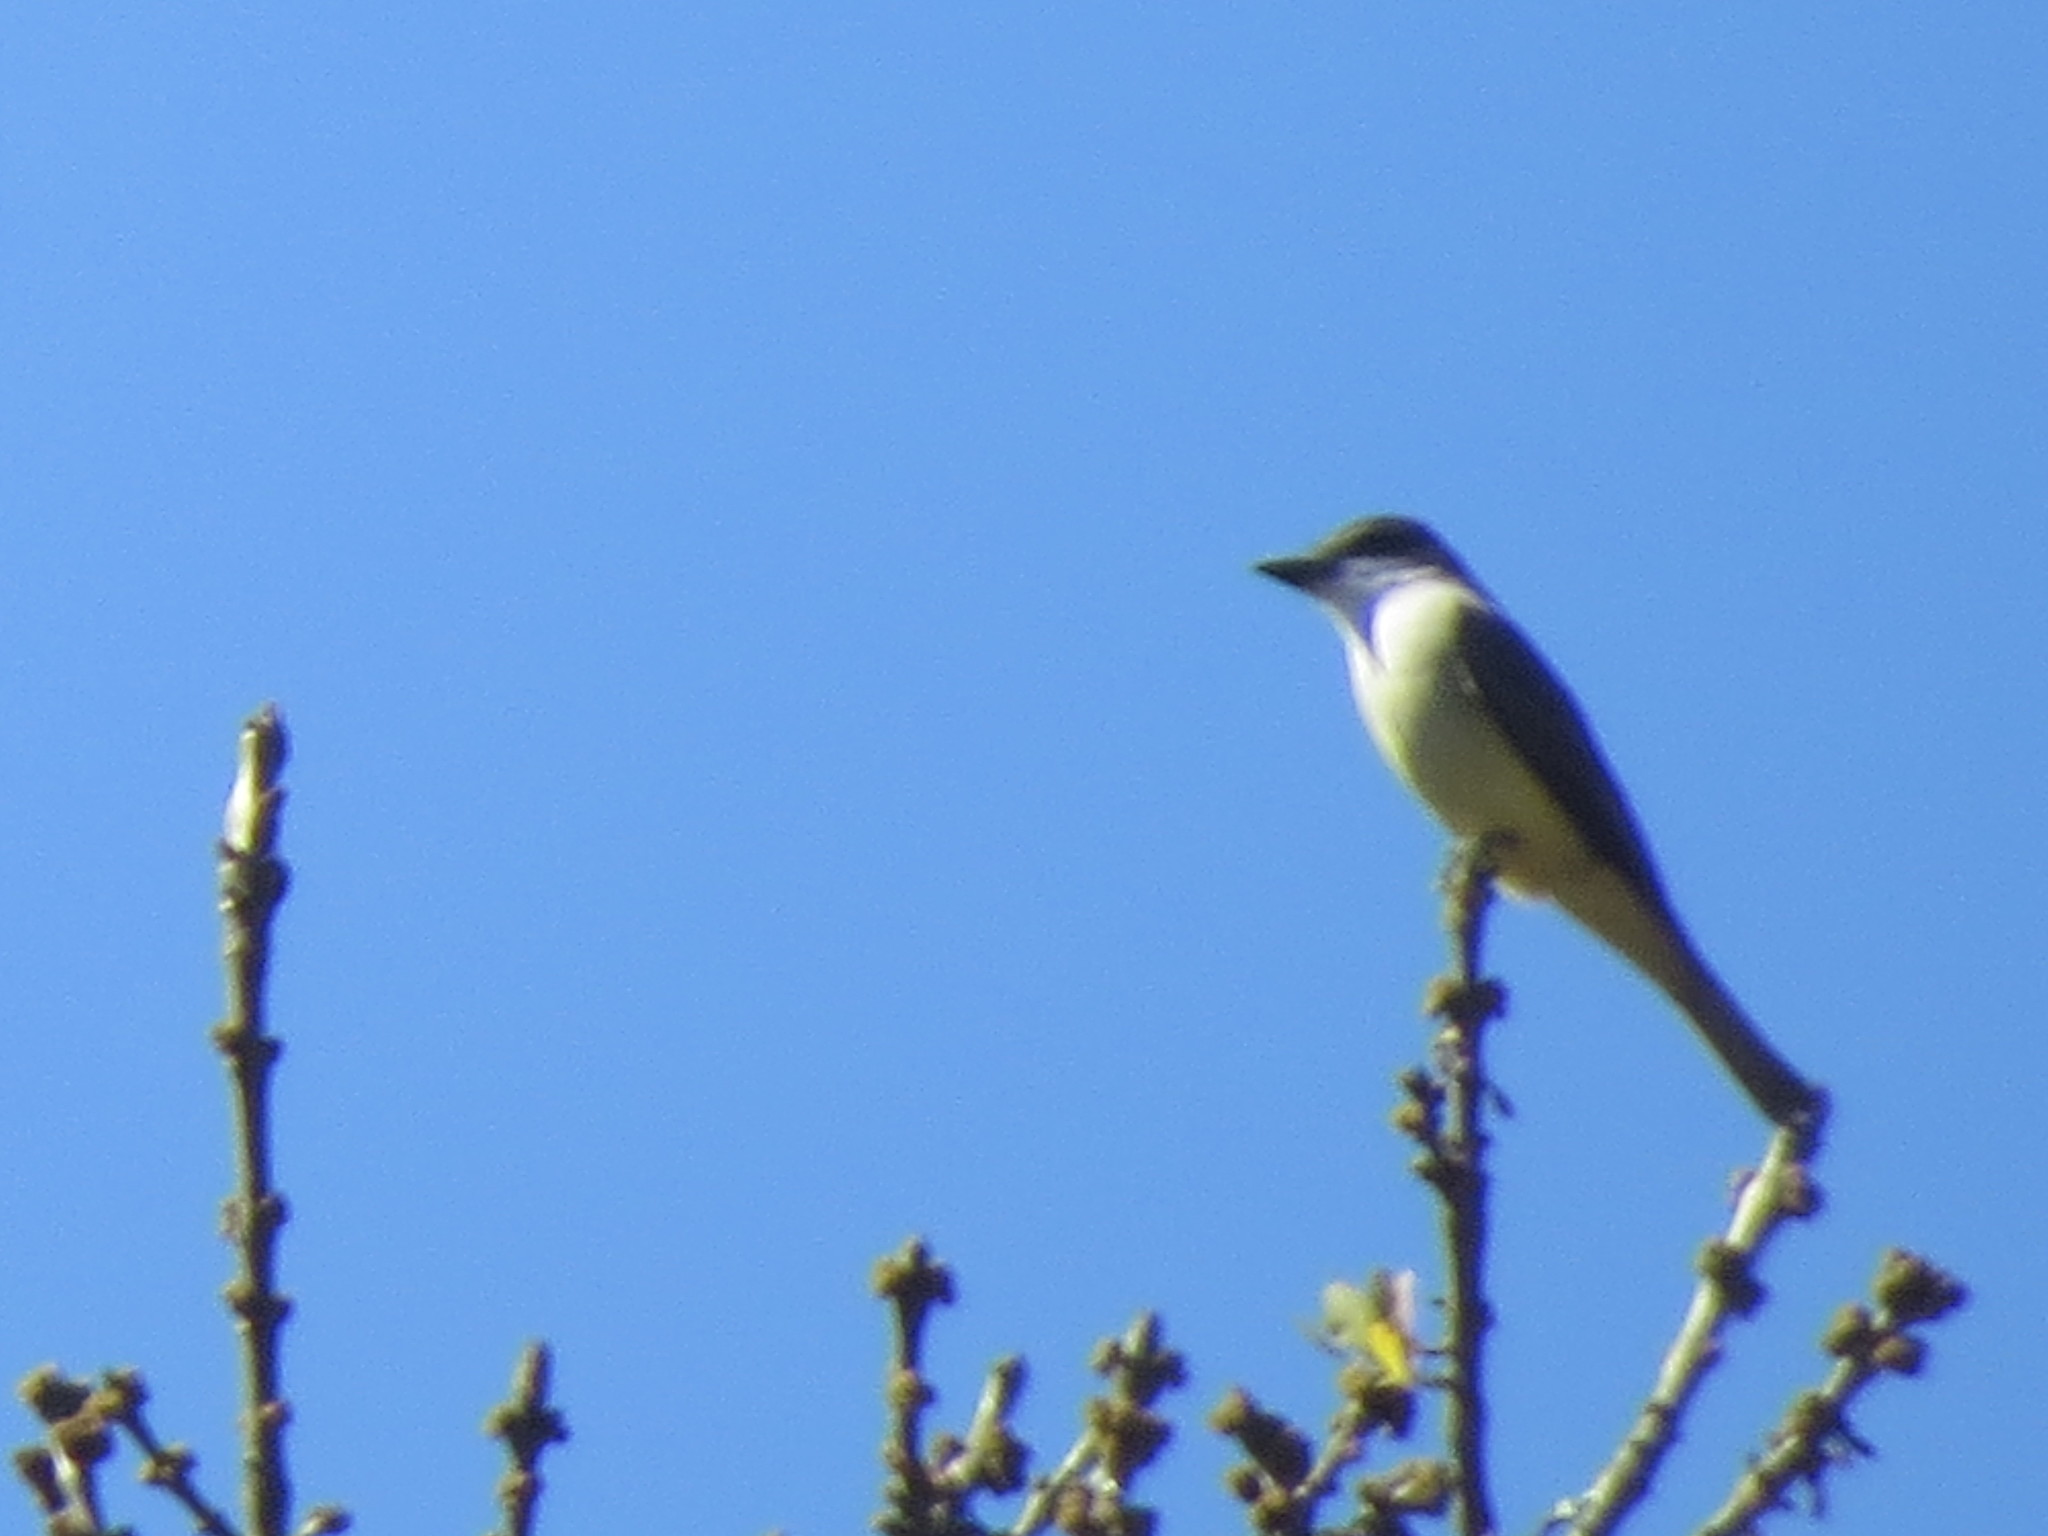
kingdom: Animalia
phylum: Chordata
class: Aves
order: Passeriformes
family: Tyrannidae
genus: Tyrannus
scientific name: Tyrannus crassirostris
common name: Thick-billed kingbird
